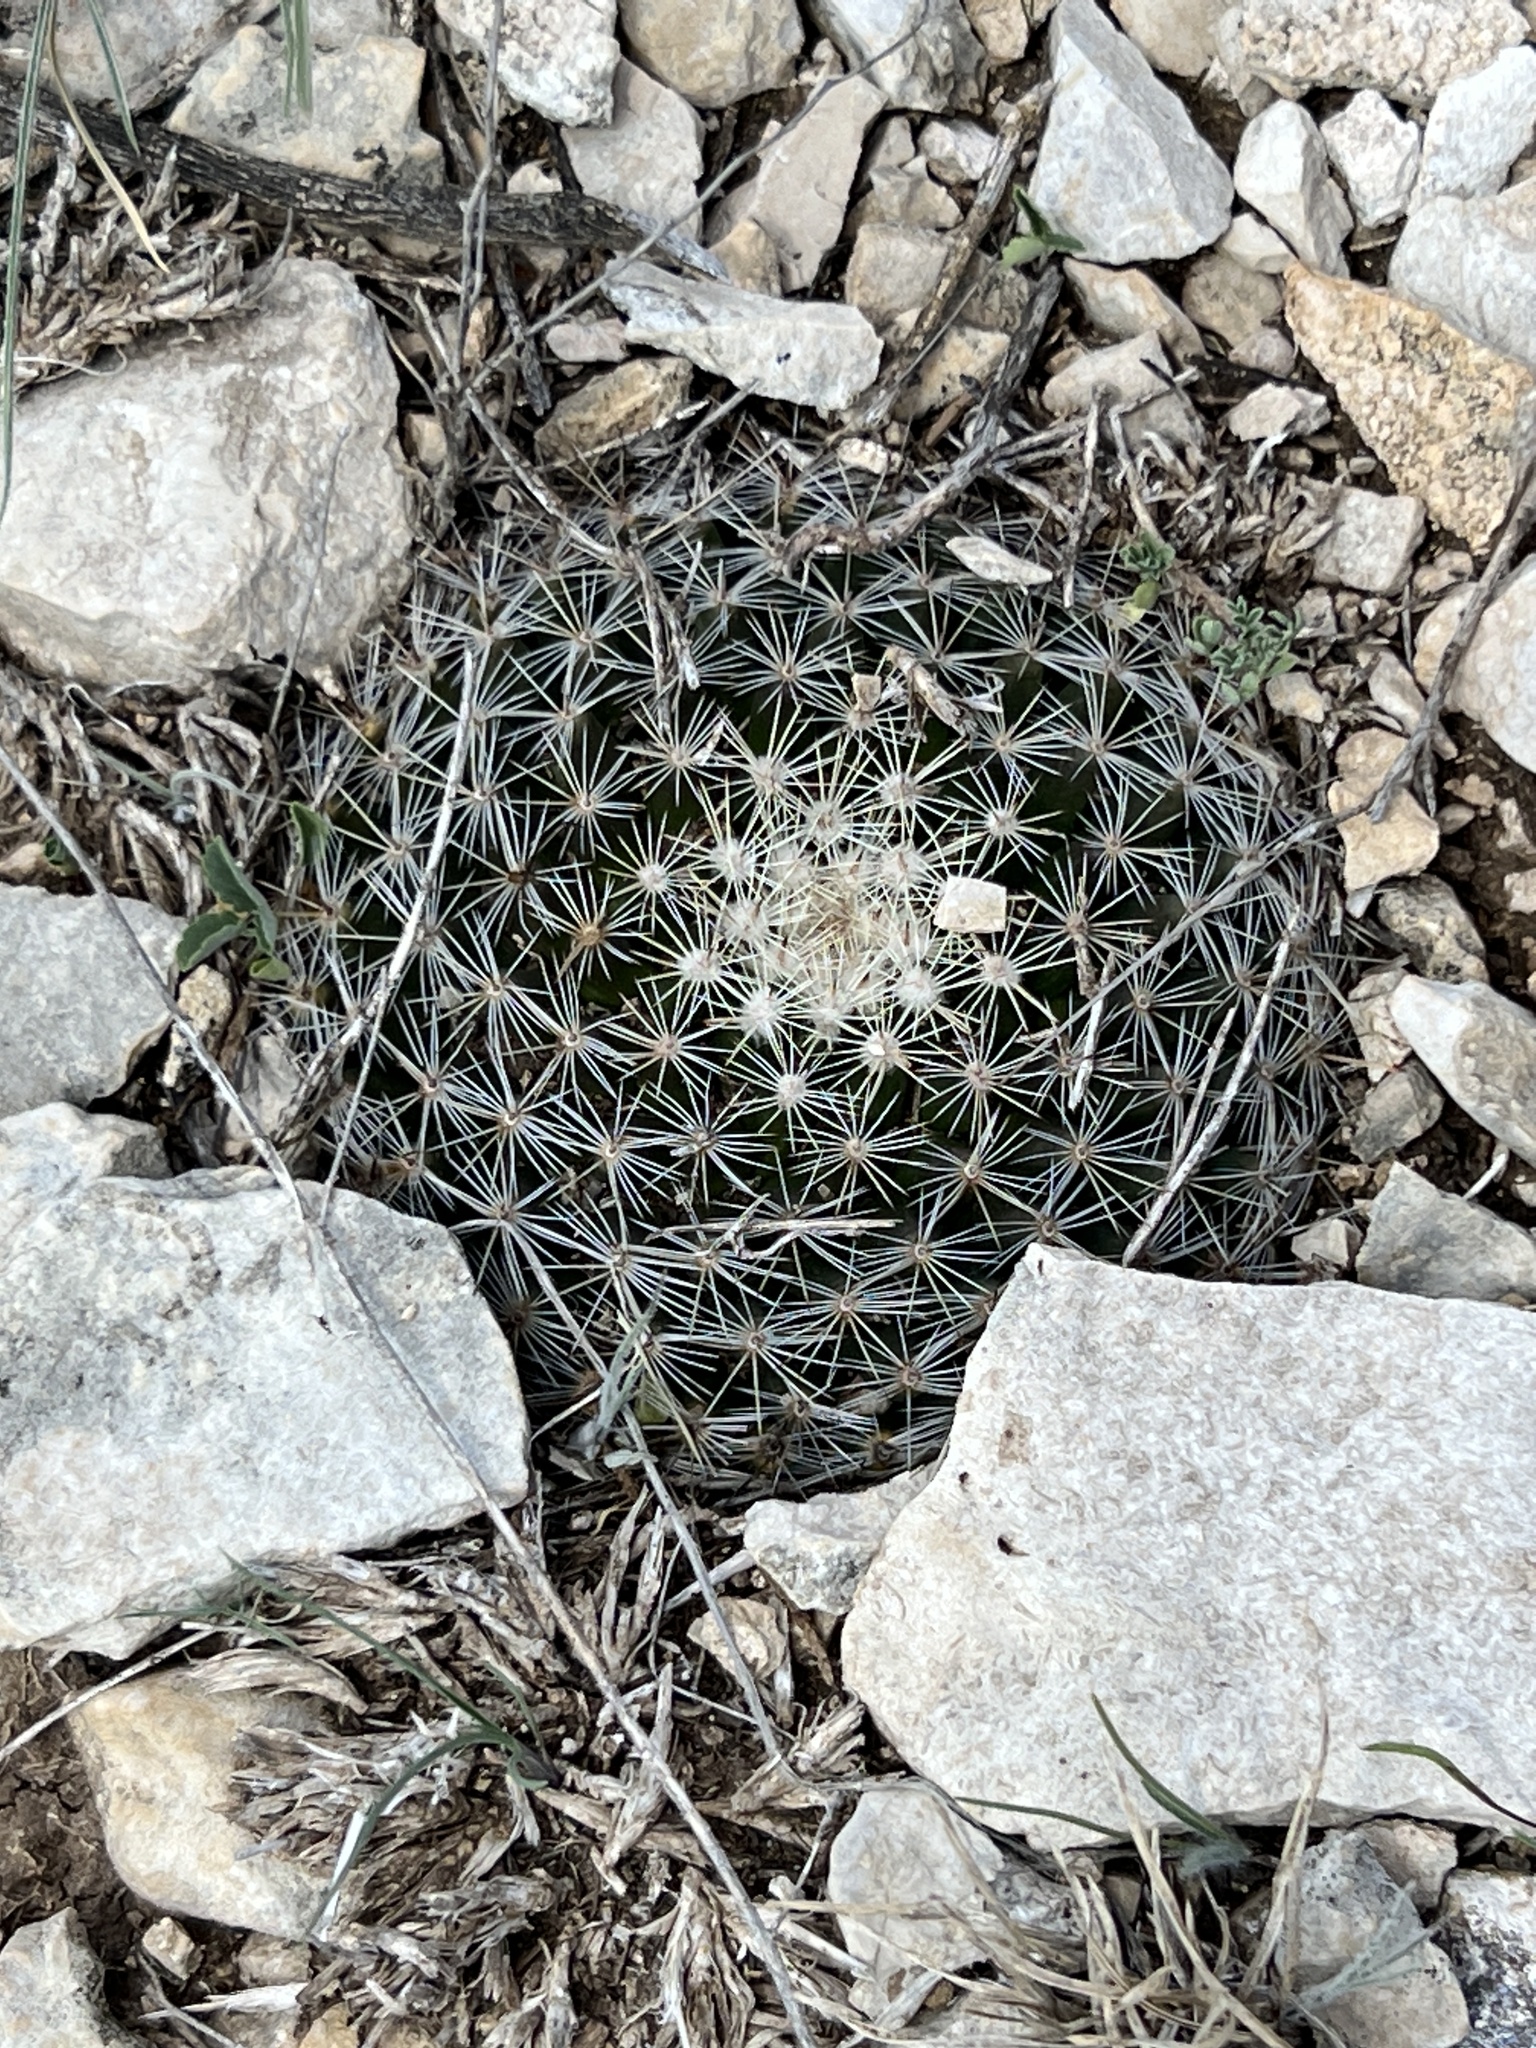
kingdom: Plantae
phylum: Tracheophyta
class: Magnoliopsida
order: Caryophyllales
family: Cactaceae
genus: Mammillaria
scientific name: Mammillaria heyderi
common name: Little nipple cactus
